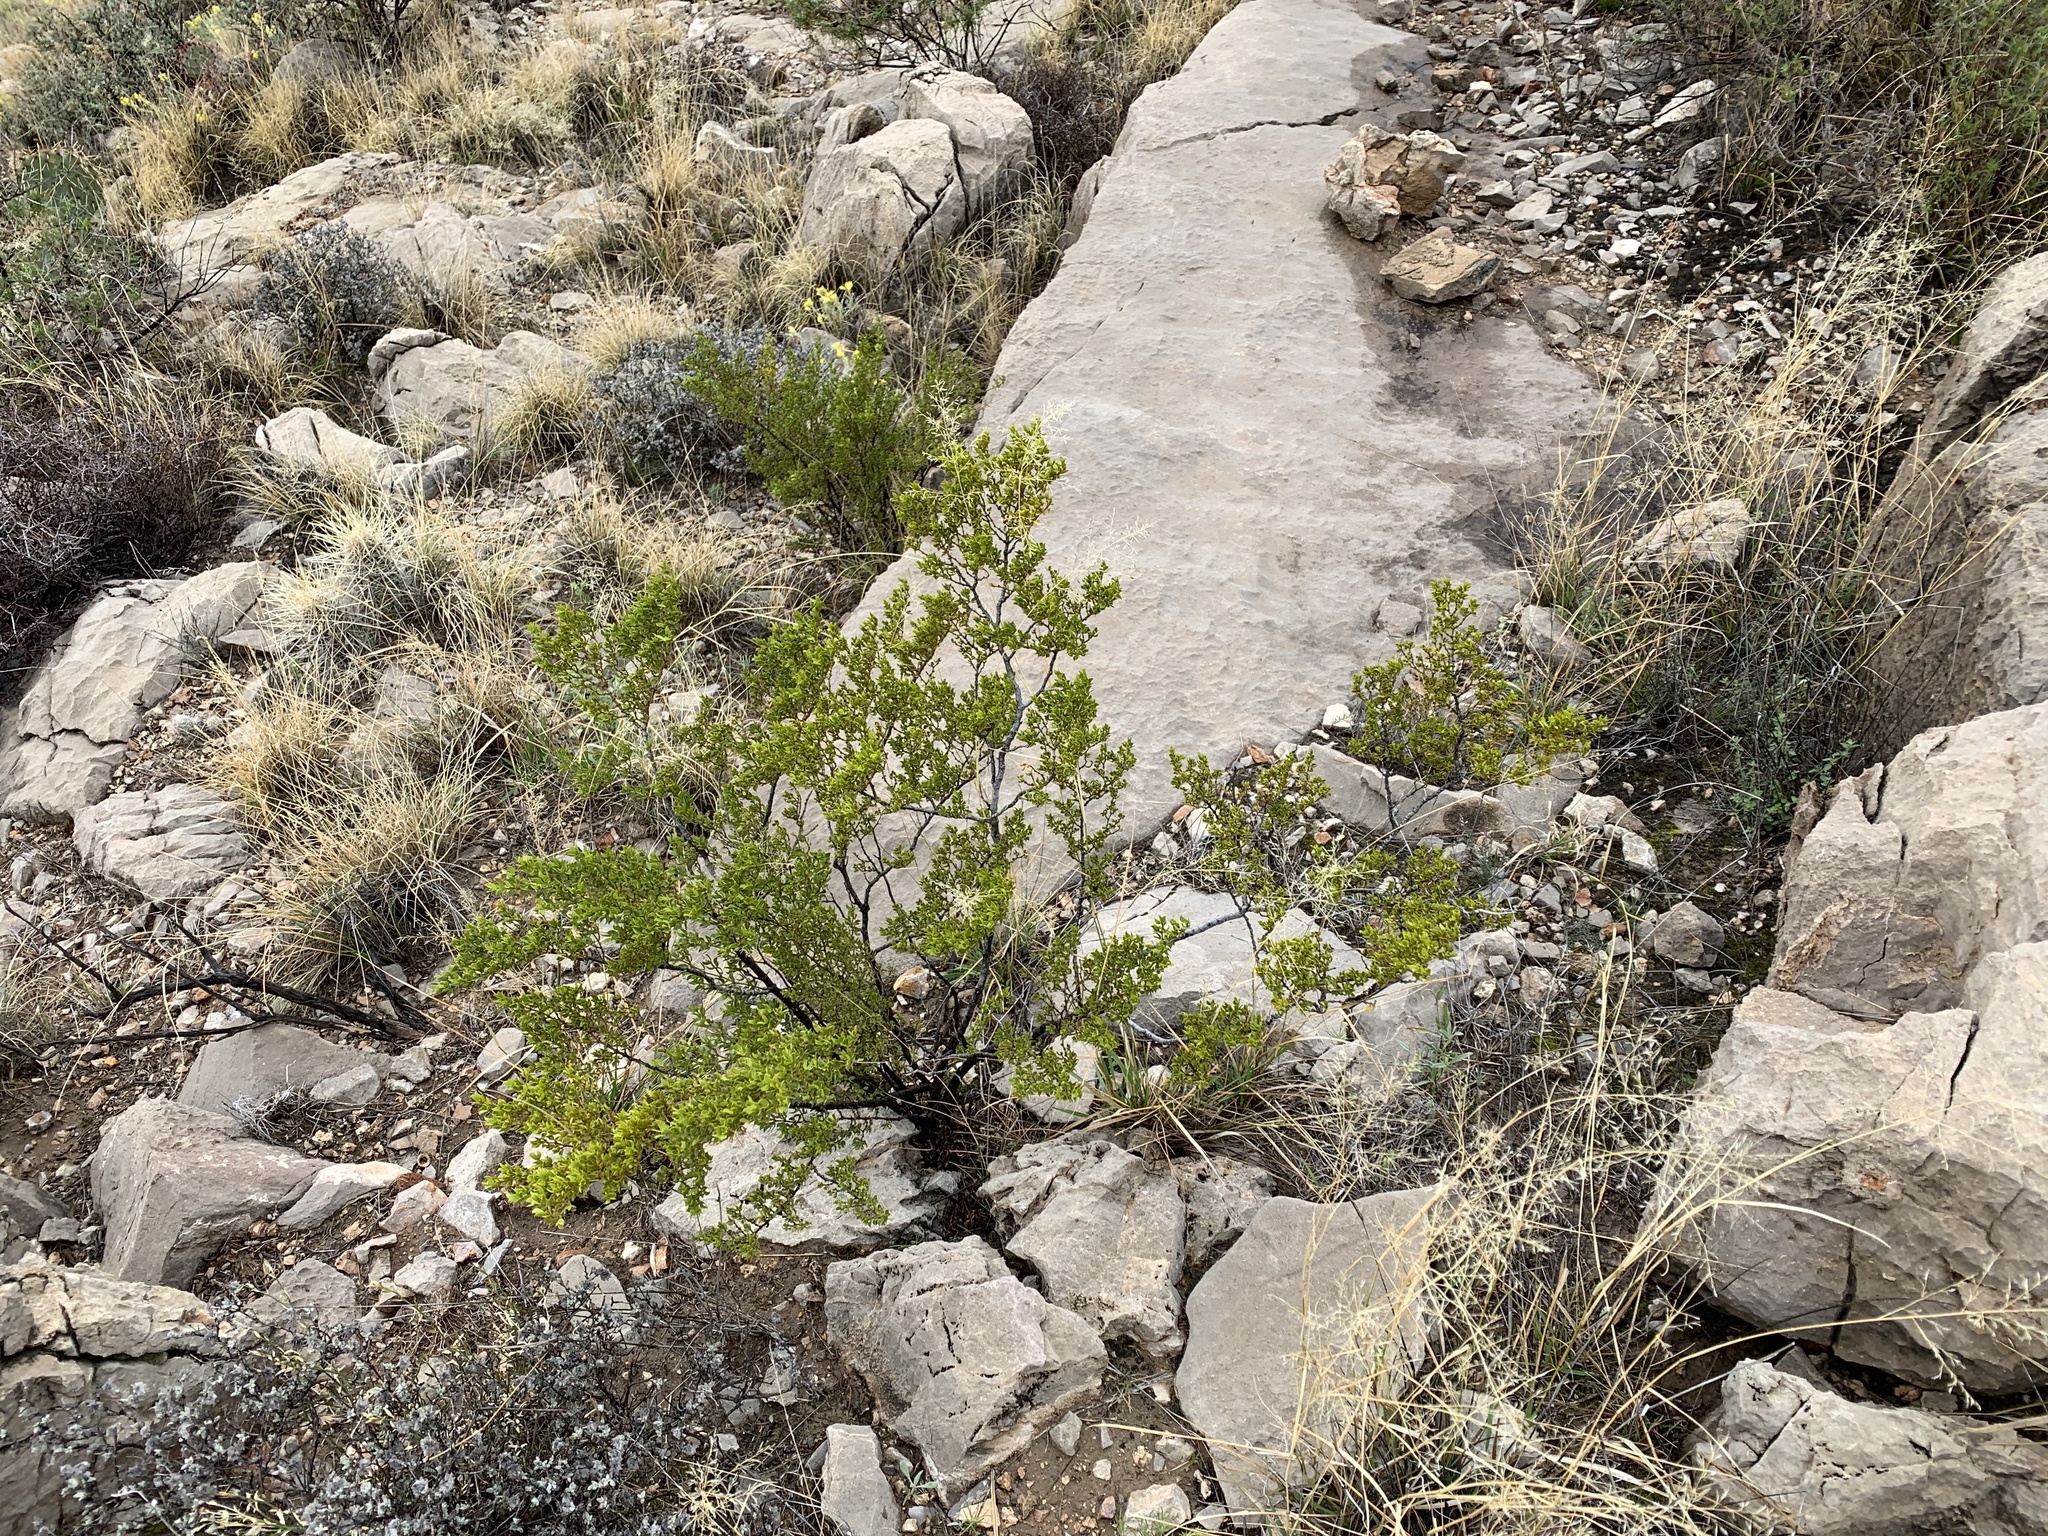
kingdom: Plantae
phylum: Tracheophyta
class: Magnoliopsida
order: Zygophyllales
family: Zygophyllaceae
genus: Larrea
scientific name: Larrea tridentata
